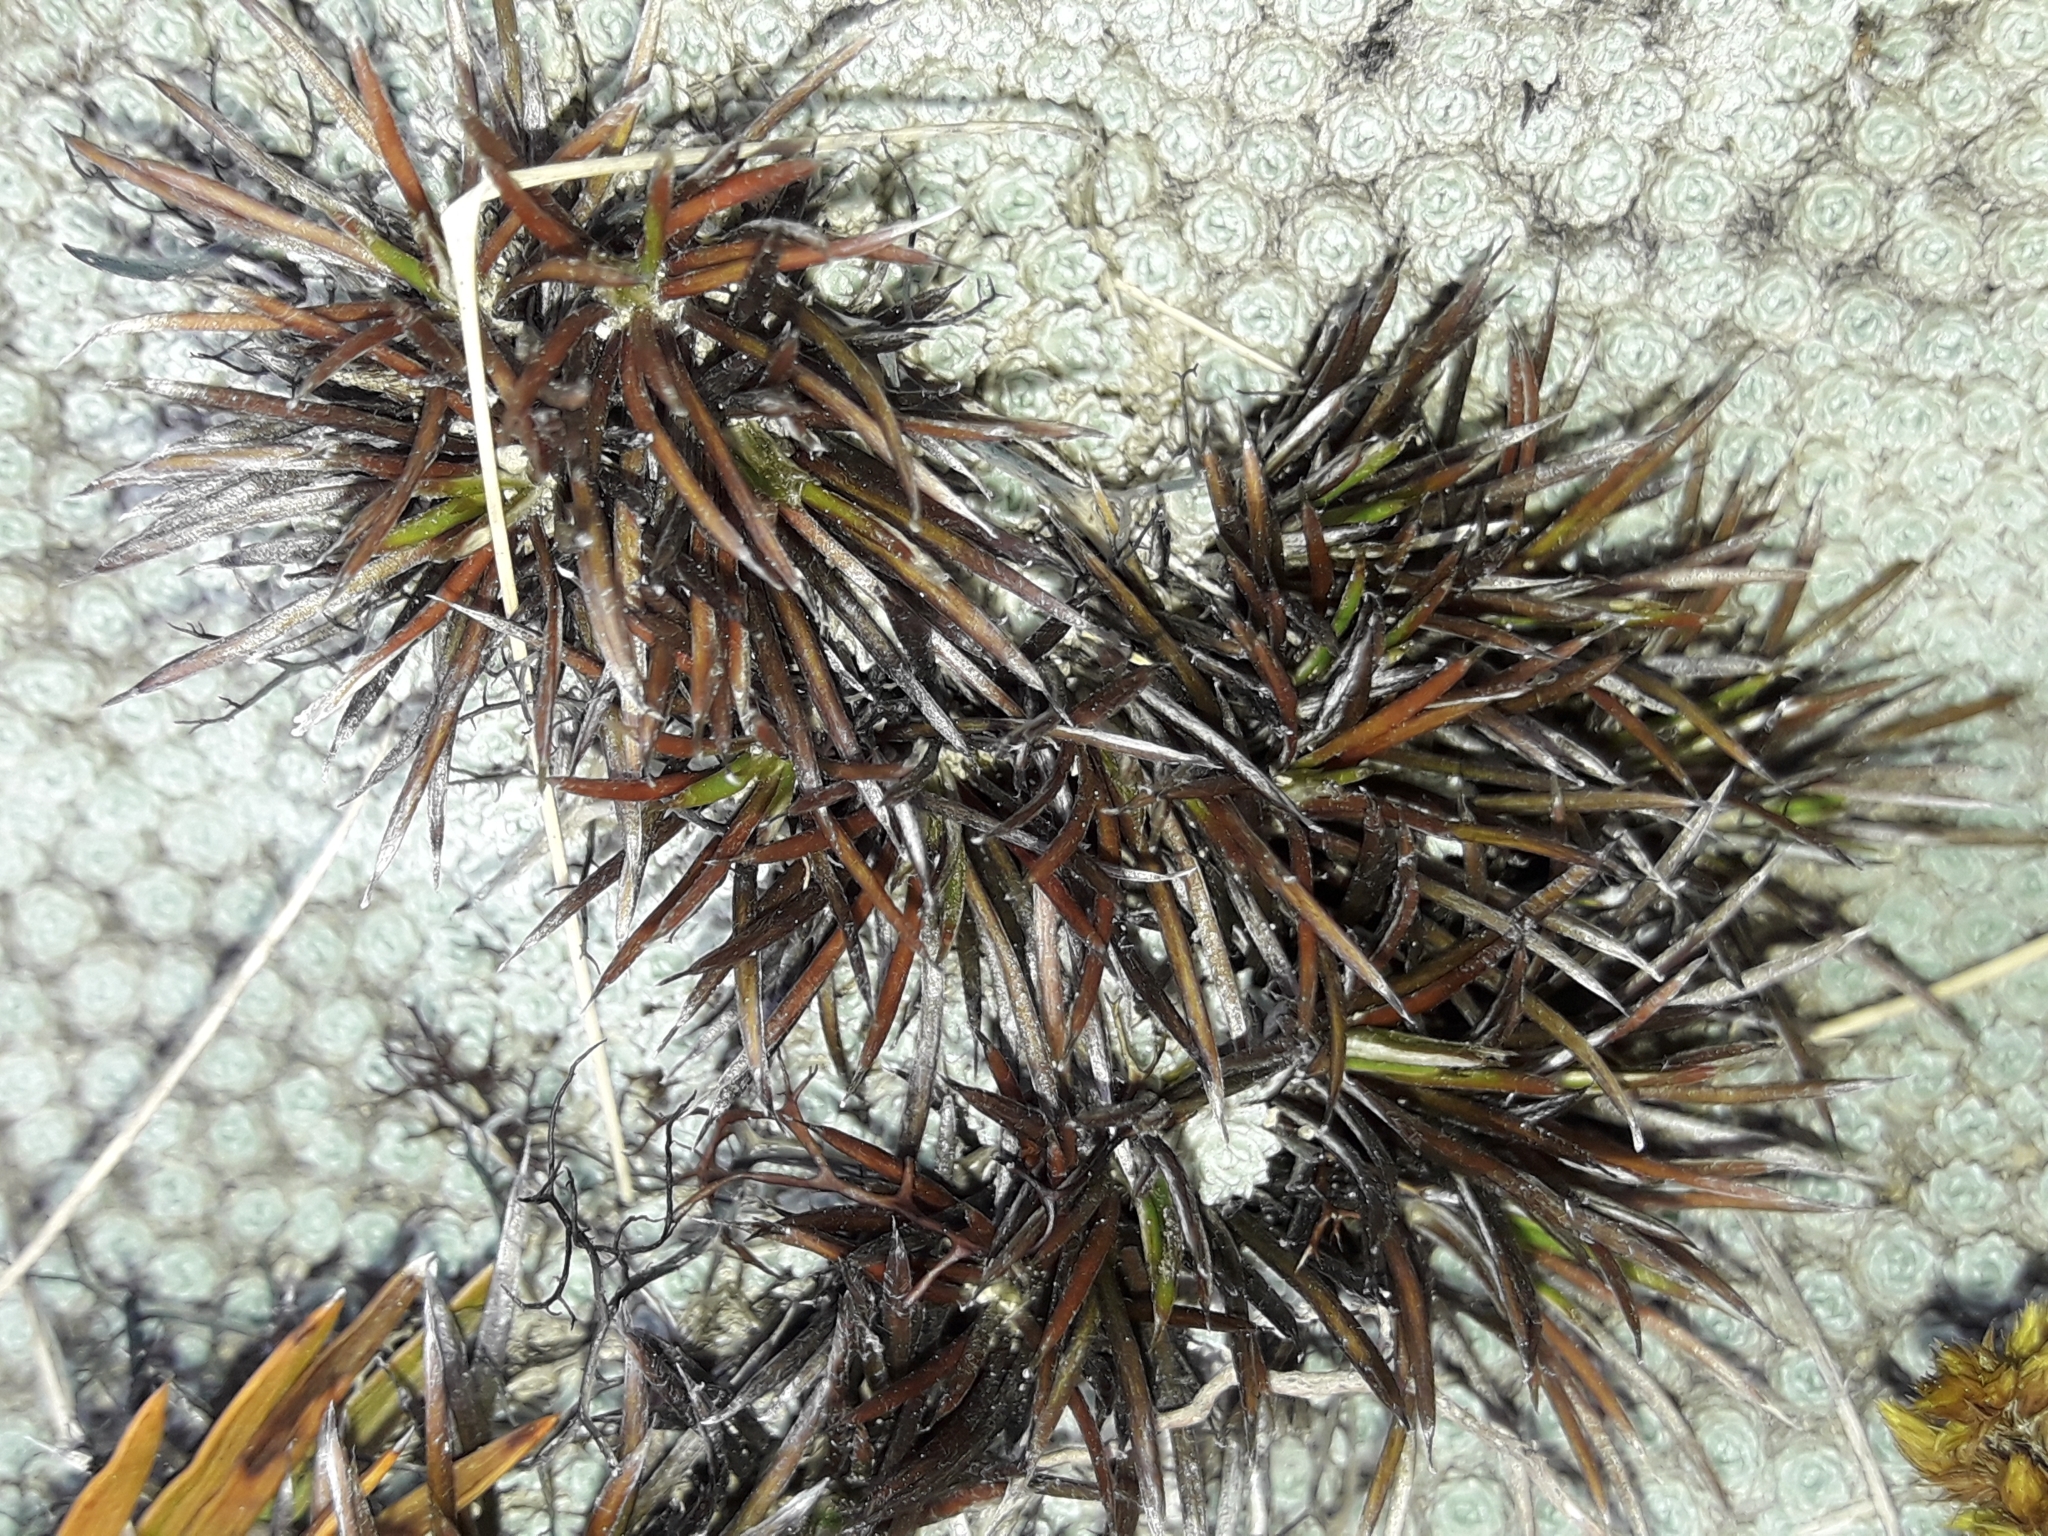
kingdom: Plantae
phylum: Tracheophyta
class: Magnoliopsida
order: Asterales
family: Asteraceae
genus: Celmisia
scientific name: Celmisia laricifolia
